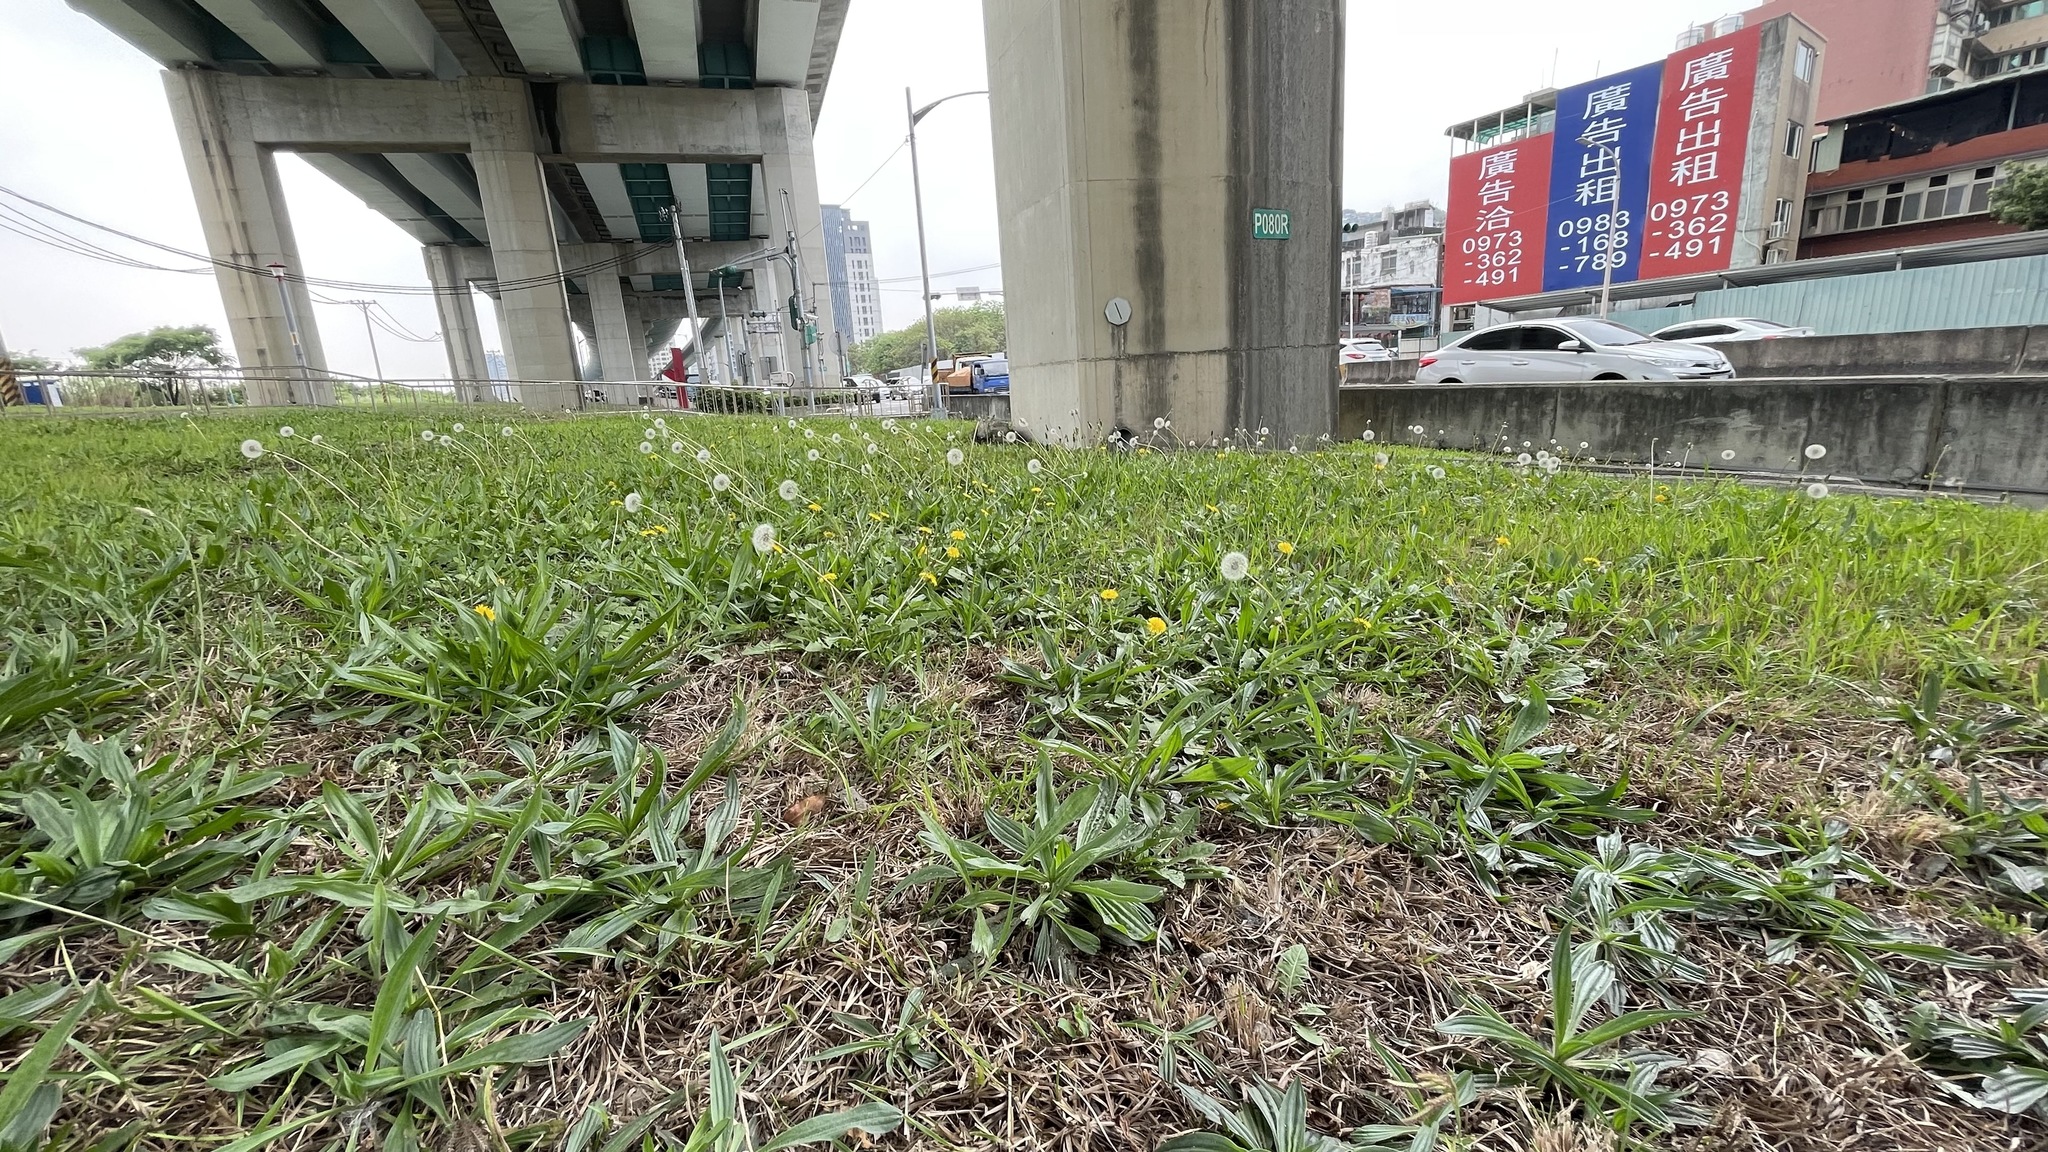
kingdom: Plantae
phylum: Tracheophyta
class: Magnoliopsida
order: Asterales
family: Asteraceae
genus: Taraxacum
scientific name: Taraxacum officinale
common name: Common dandelion
